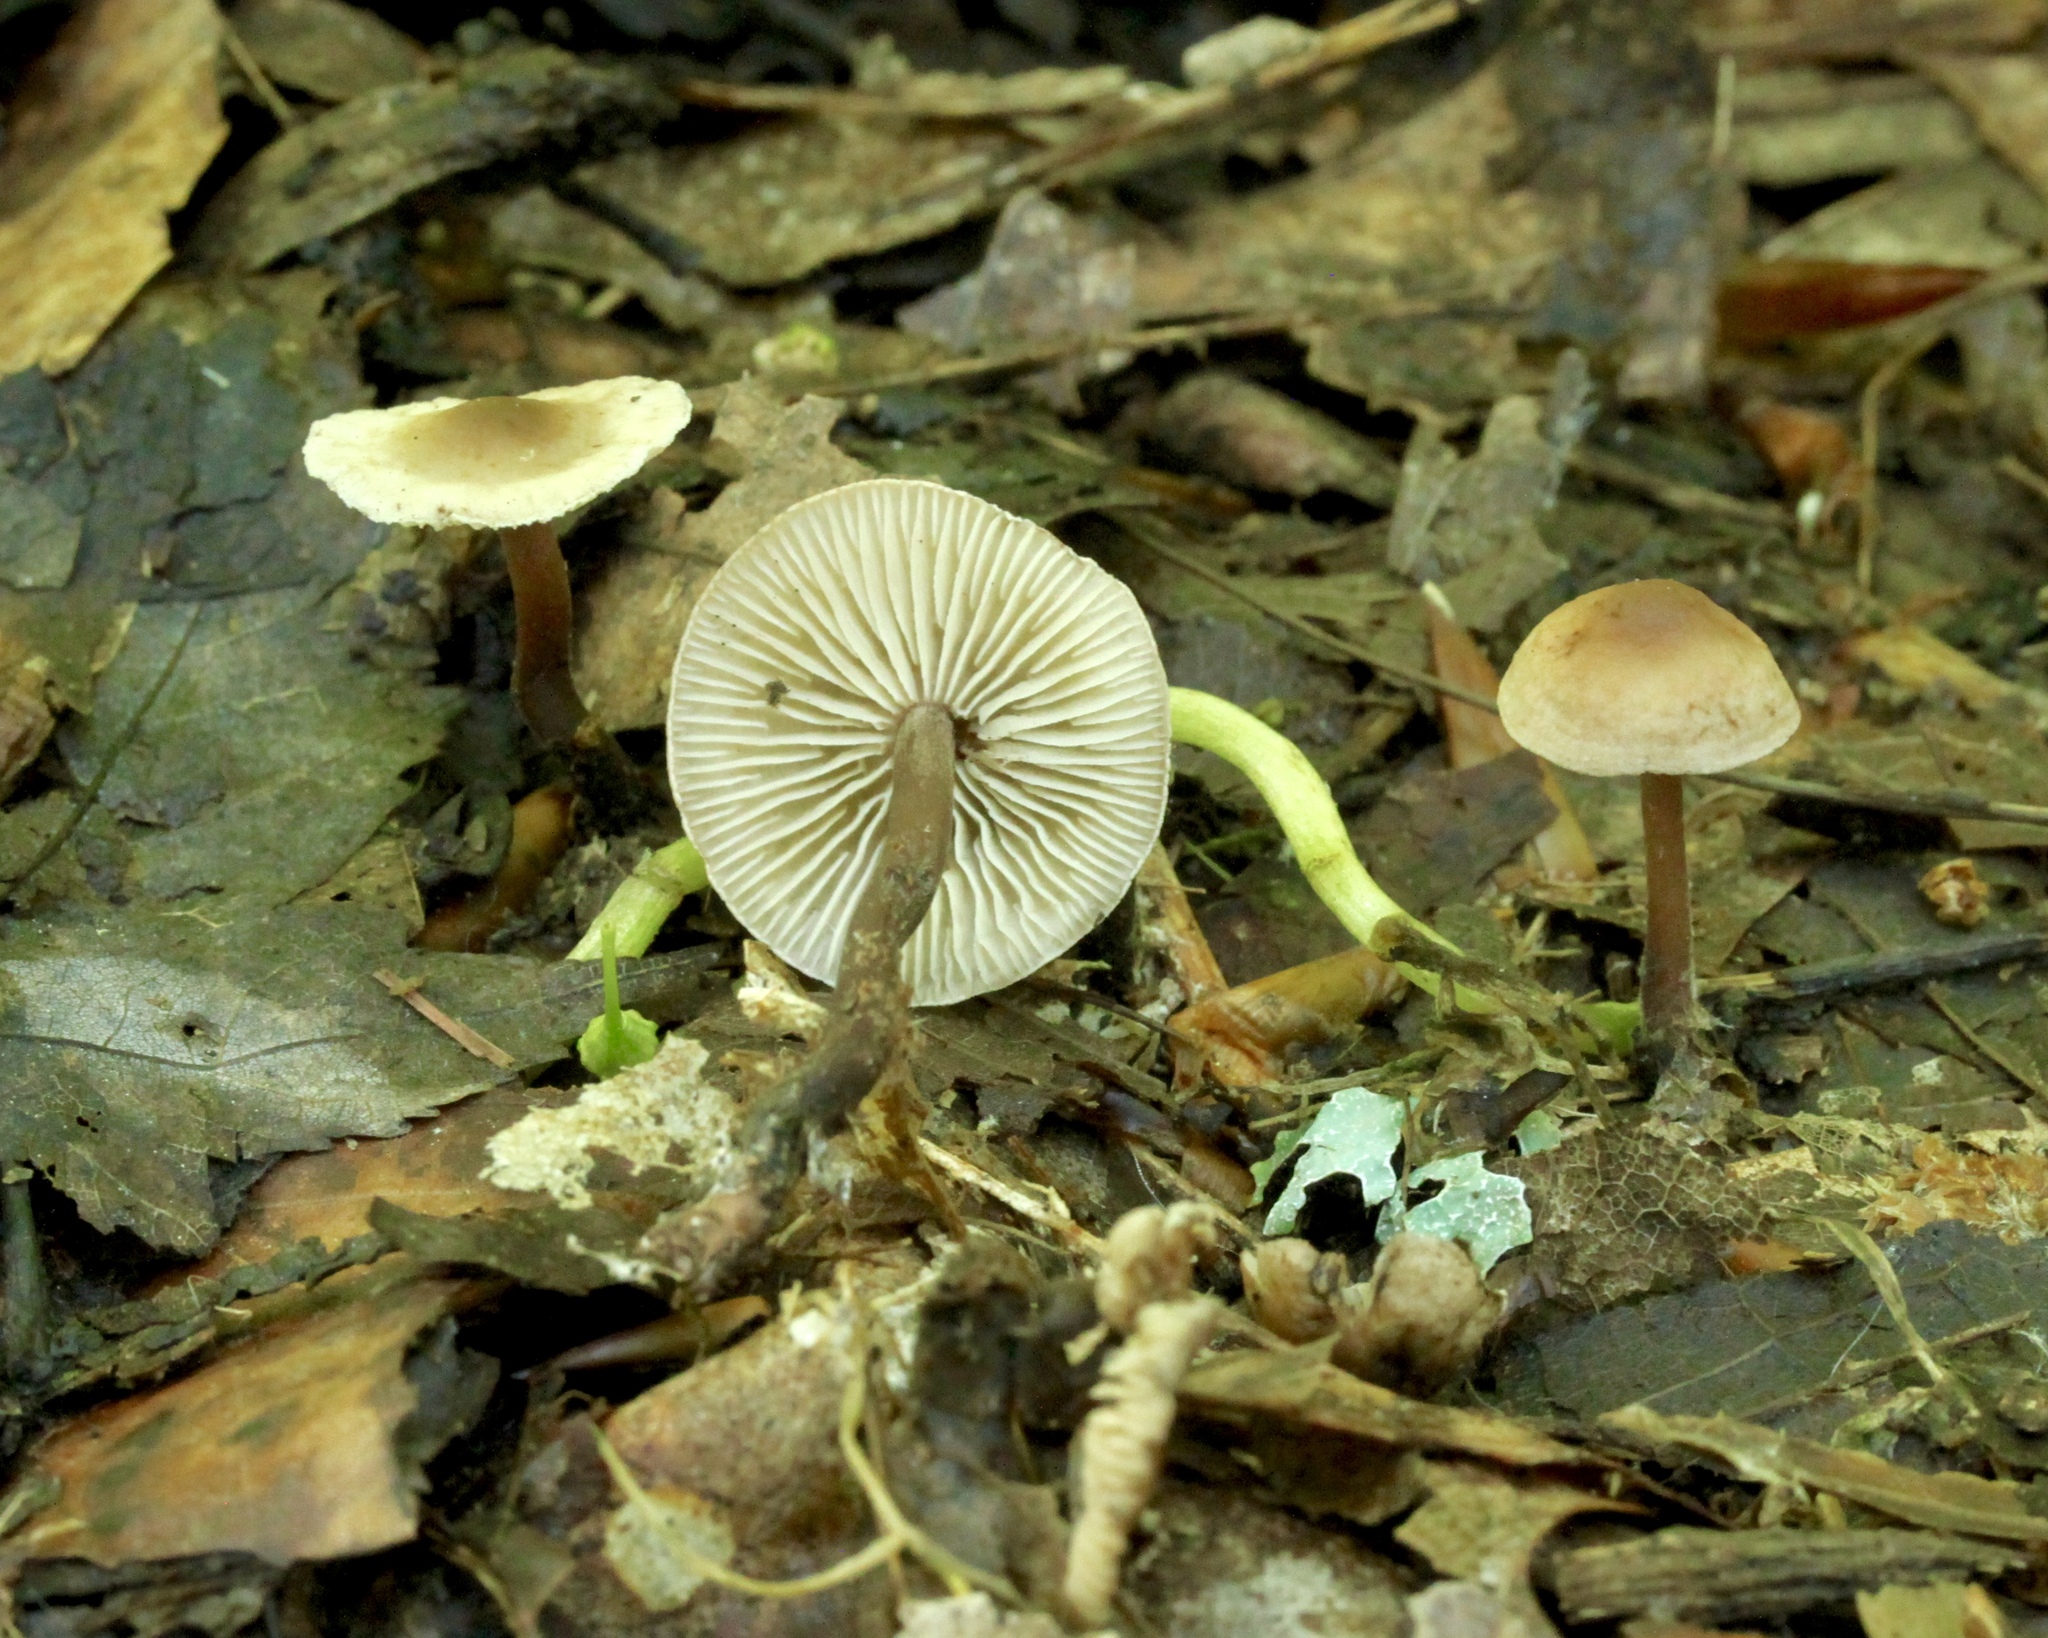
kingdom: Fungi
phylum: Basidiomycota
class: Agaricomycetes
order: Agaricales
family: Omphalotaceae
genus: Gymnopus
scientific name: Gymnopus brassicolens
